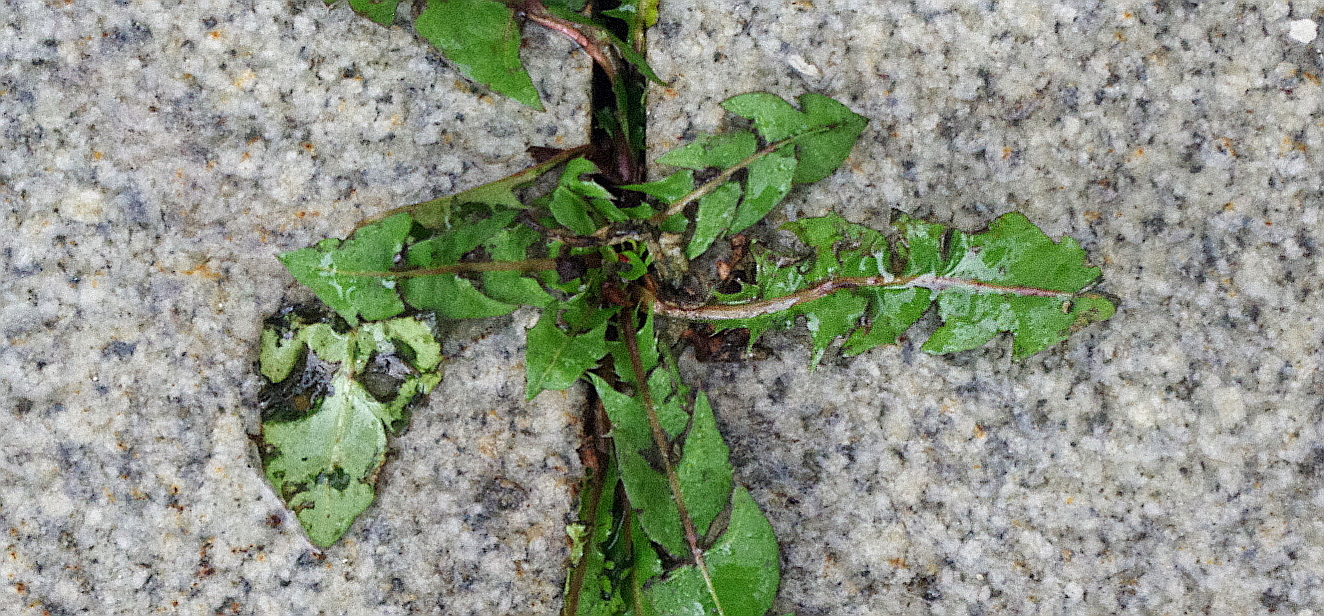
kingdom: Plantae
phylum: Tracheophyta
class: Magnoliopsida
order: Asterales
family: Asteraceae
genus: Taraxacum
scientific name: Taraxacum officinale
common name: Common dandelion
